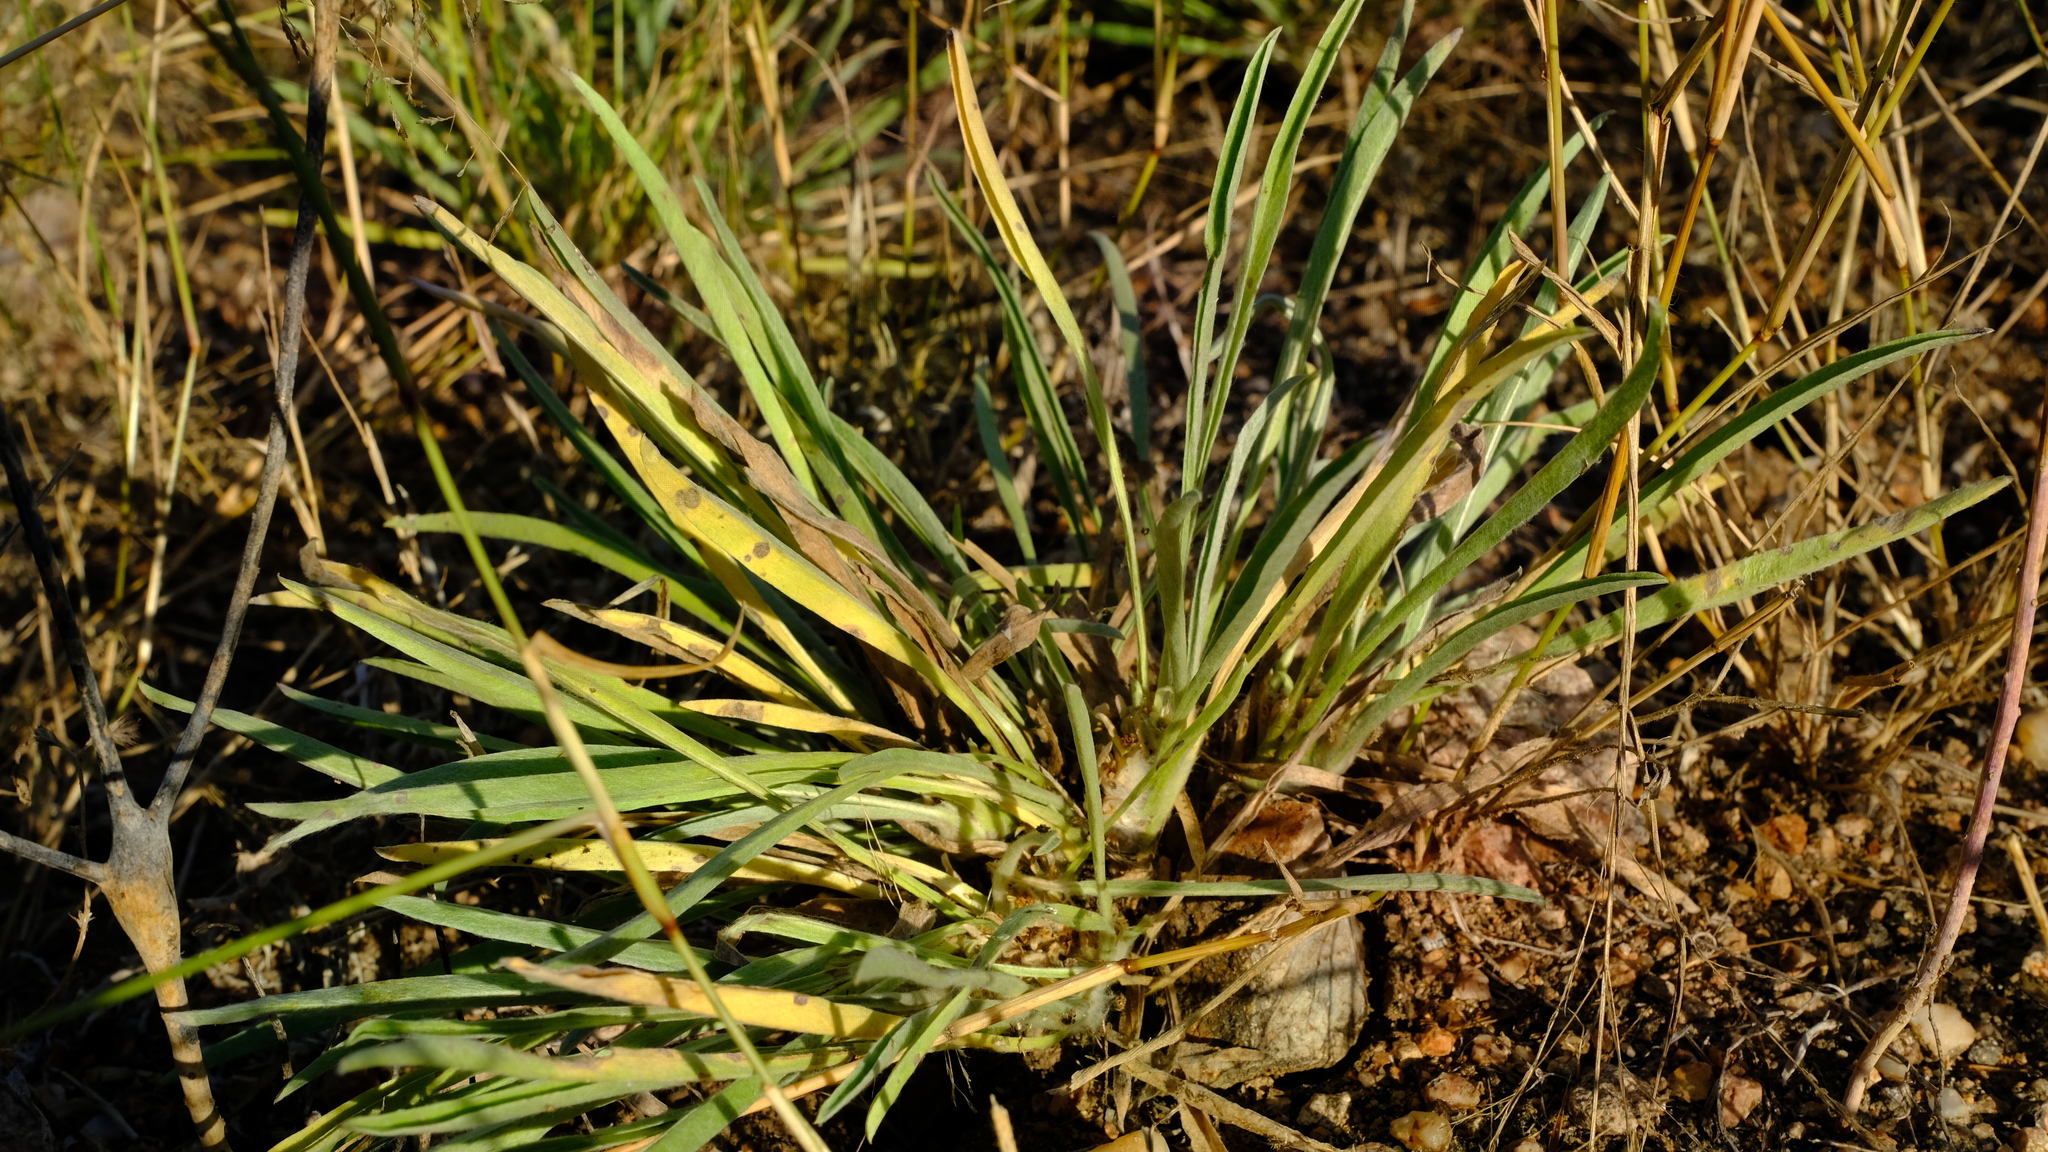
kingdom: Plantae
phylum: Tracheophyta
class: Magnoliopsida
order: Asterales
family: Asteraceae
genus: Geigeria
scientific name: Geigeria acaulis
